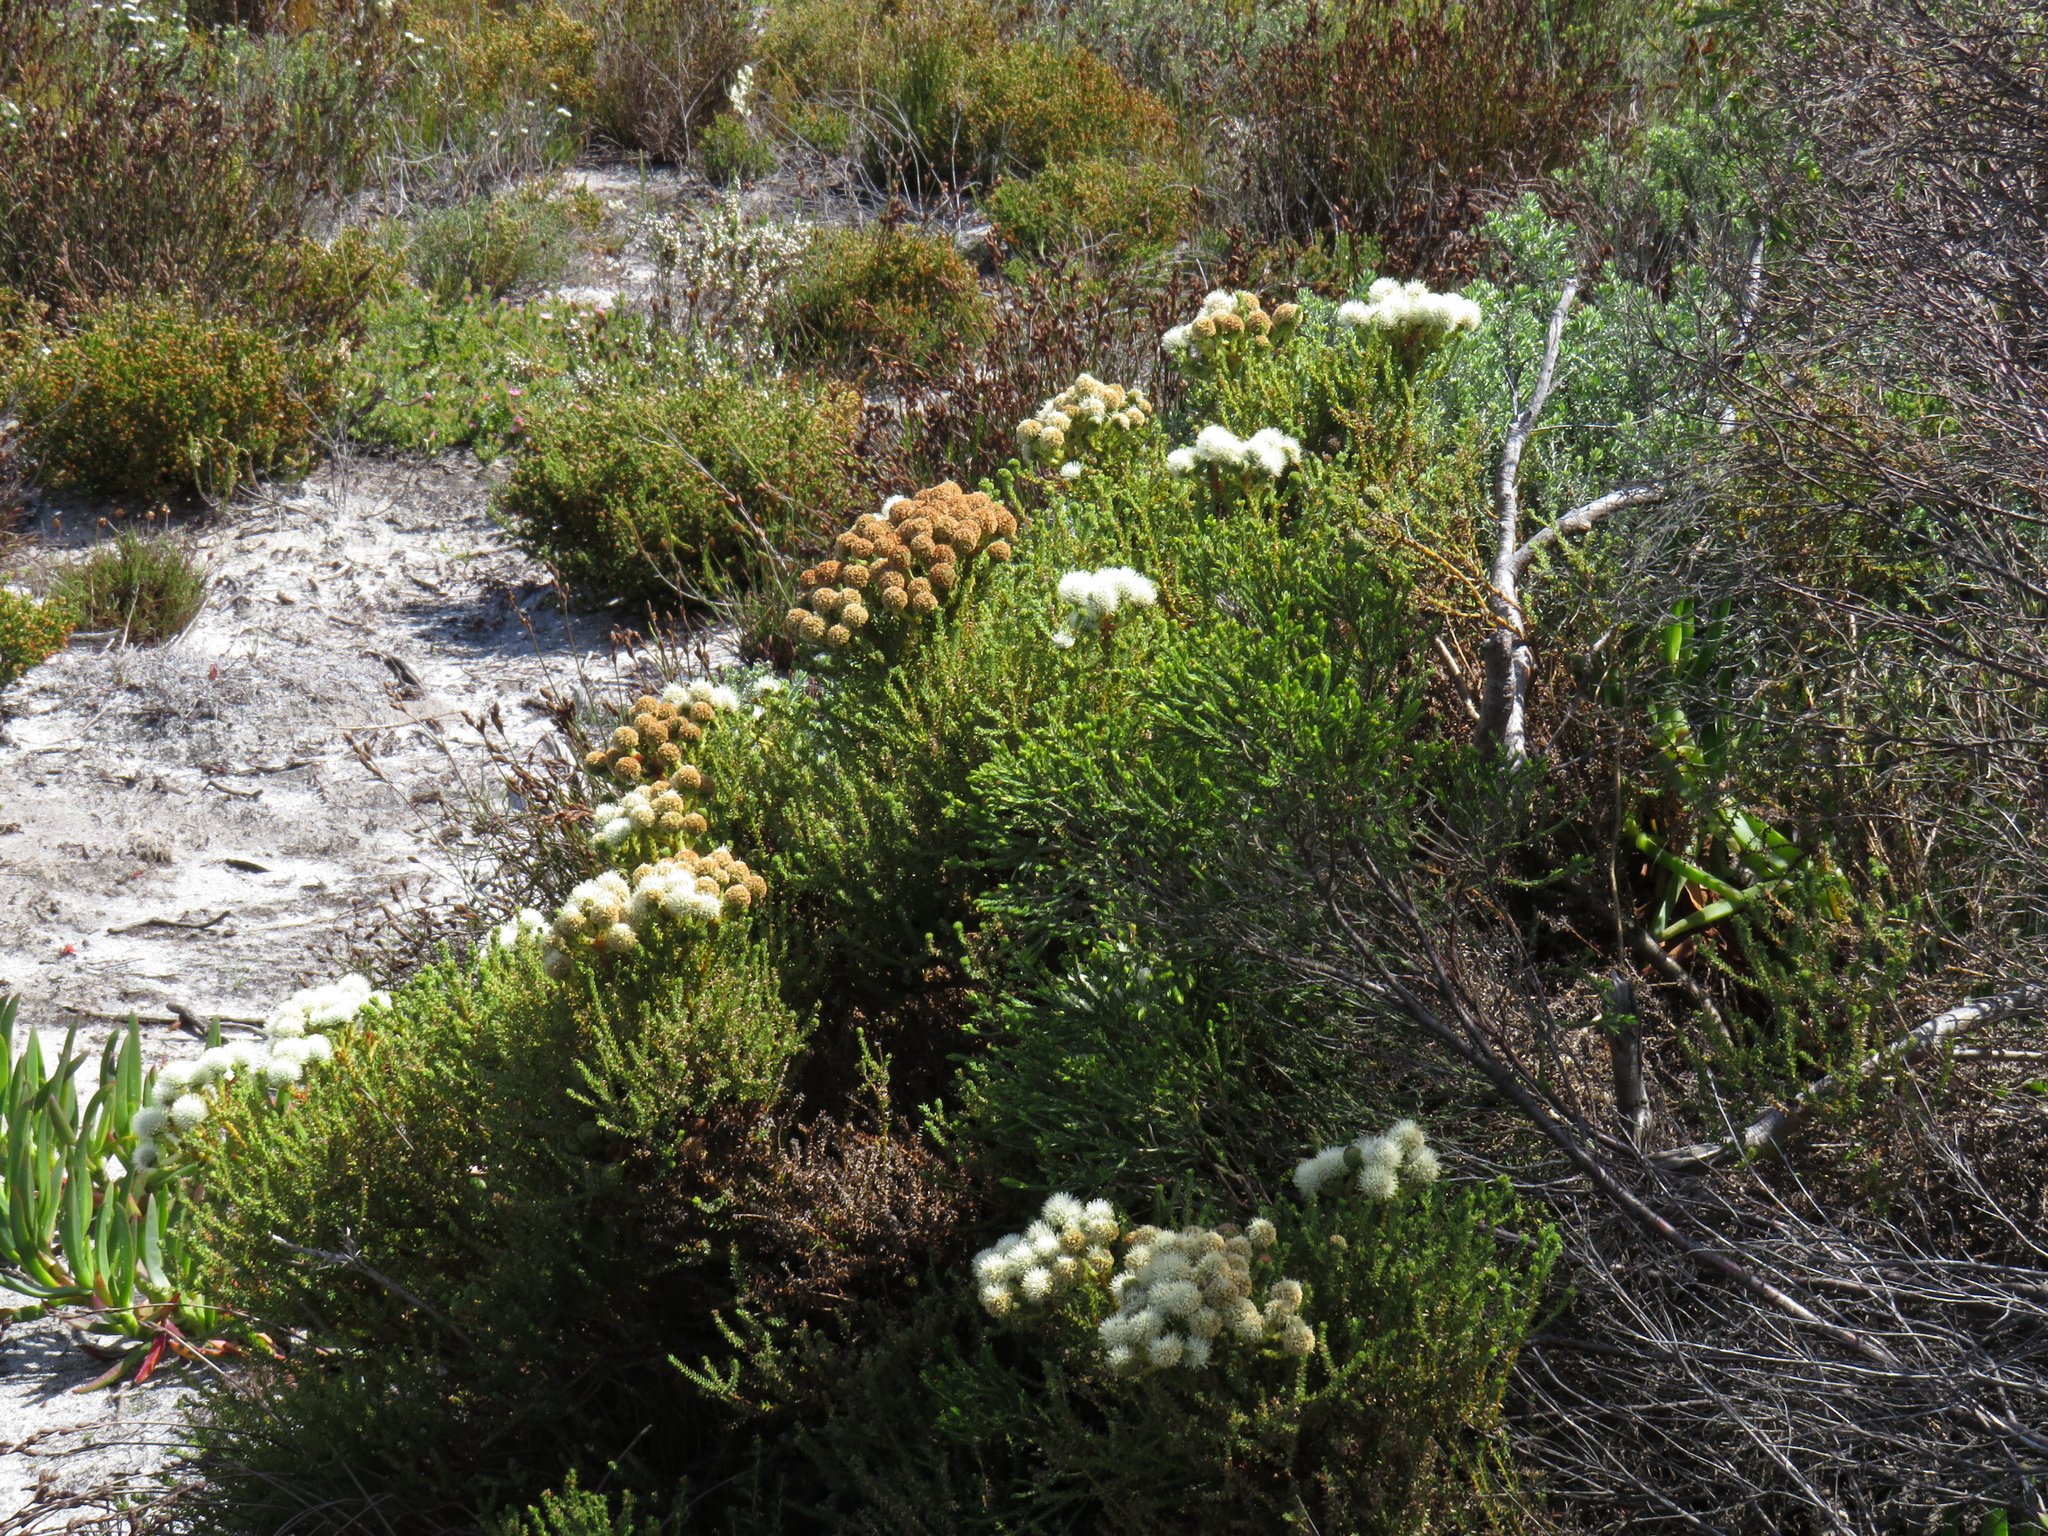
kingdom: Plantae
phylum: Tracheophyta
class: Magnoliopsida
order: Bruniales
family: Bruniaceae
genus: Berzelia
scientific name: Berzelia abrotanoides
